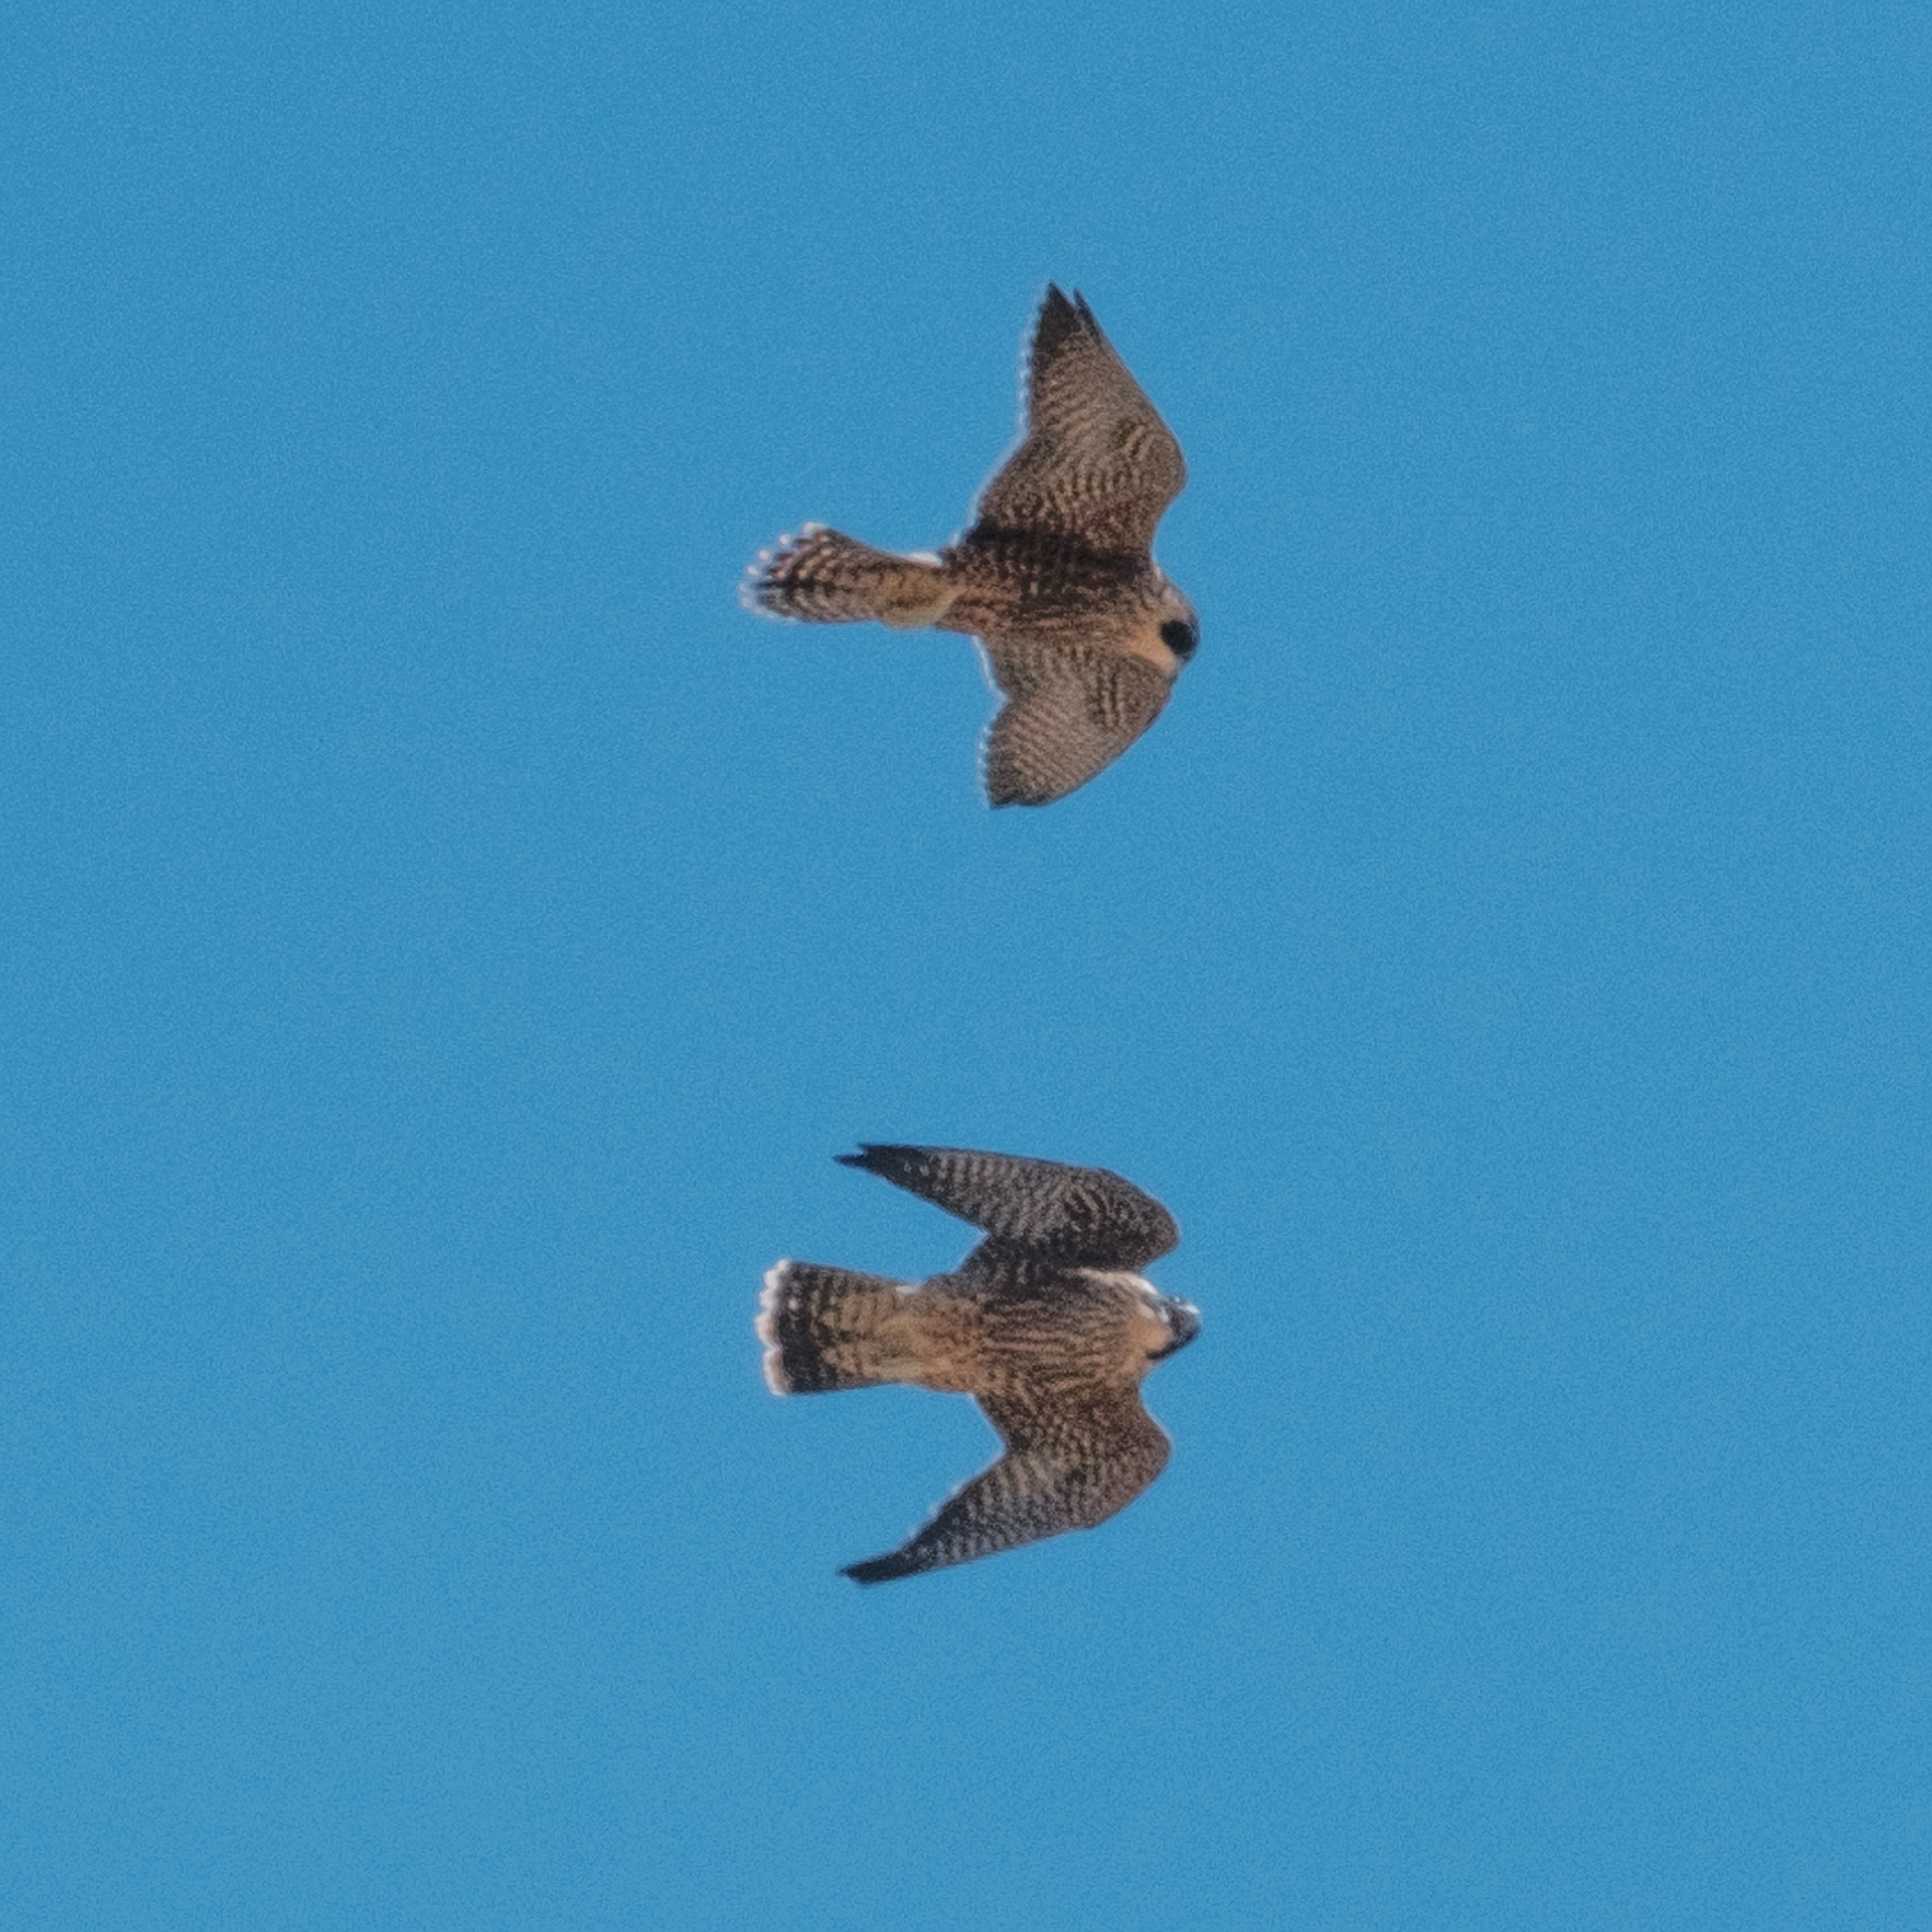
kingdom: Animalia
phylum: Chordata
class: Aves
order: Falconiformes
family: Falconidae
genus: Falco
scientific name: Falco peregrinus
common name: Peregrine falcon
